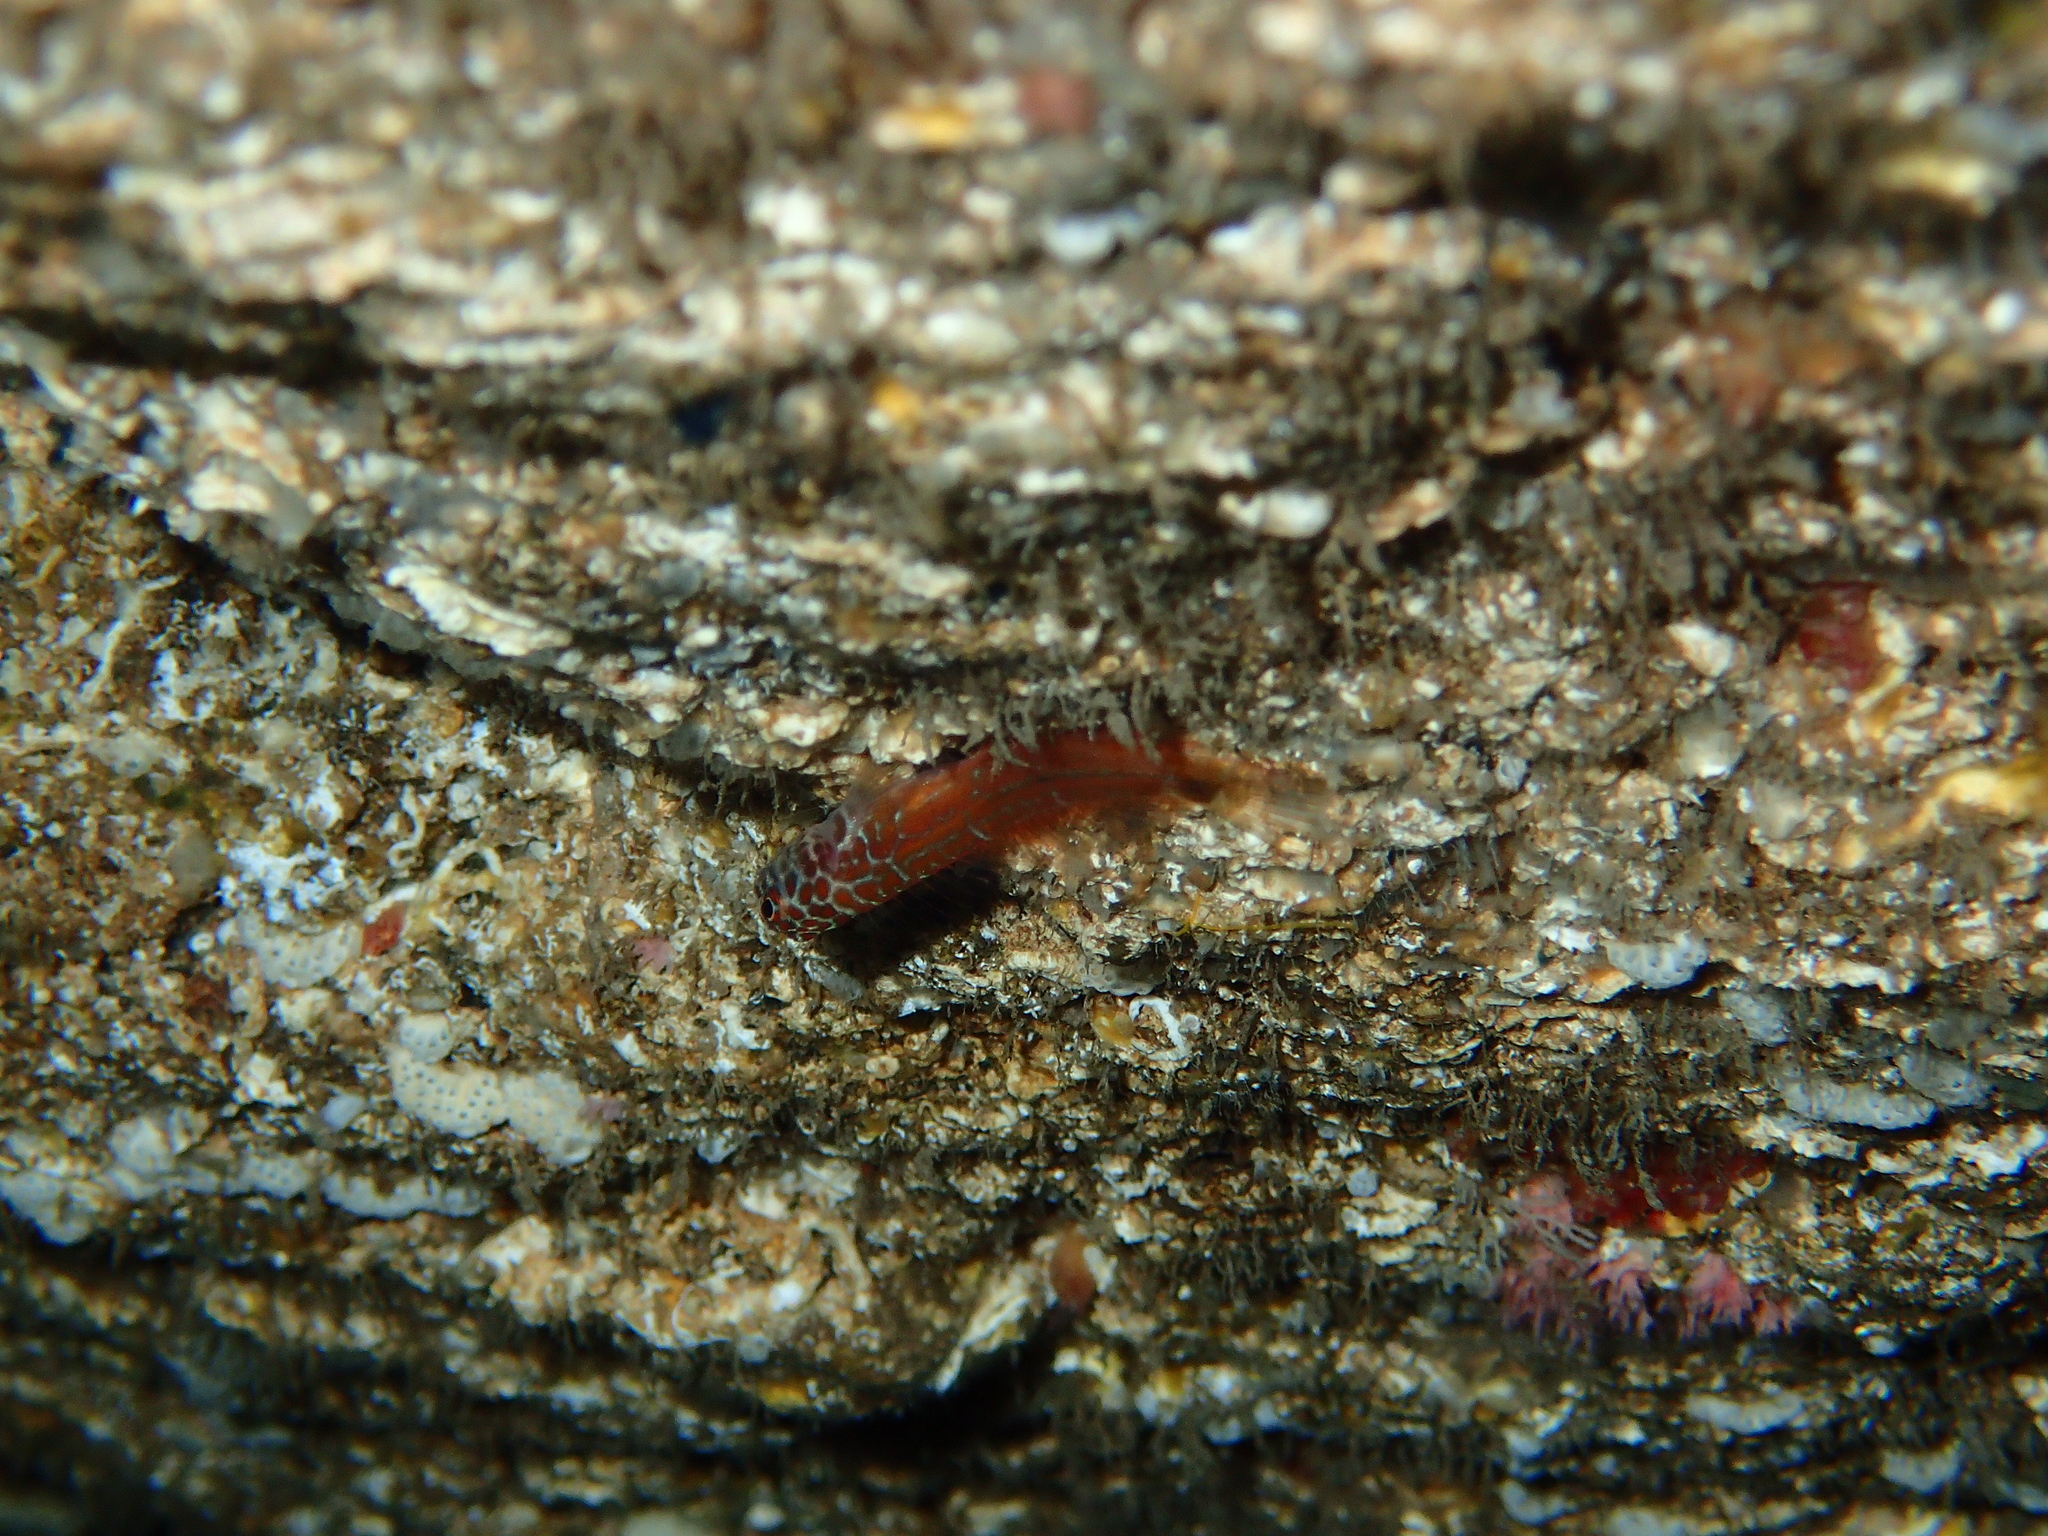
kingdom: Animalia
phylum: Chordata
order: Perciformes
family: Blenniidae
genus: Microlipophrys
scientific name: Microlipophrys nigriceps
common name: Black-headed blenny
